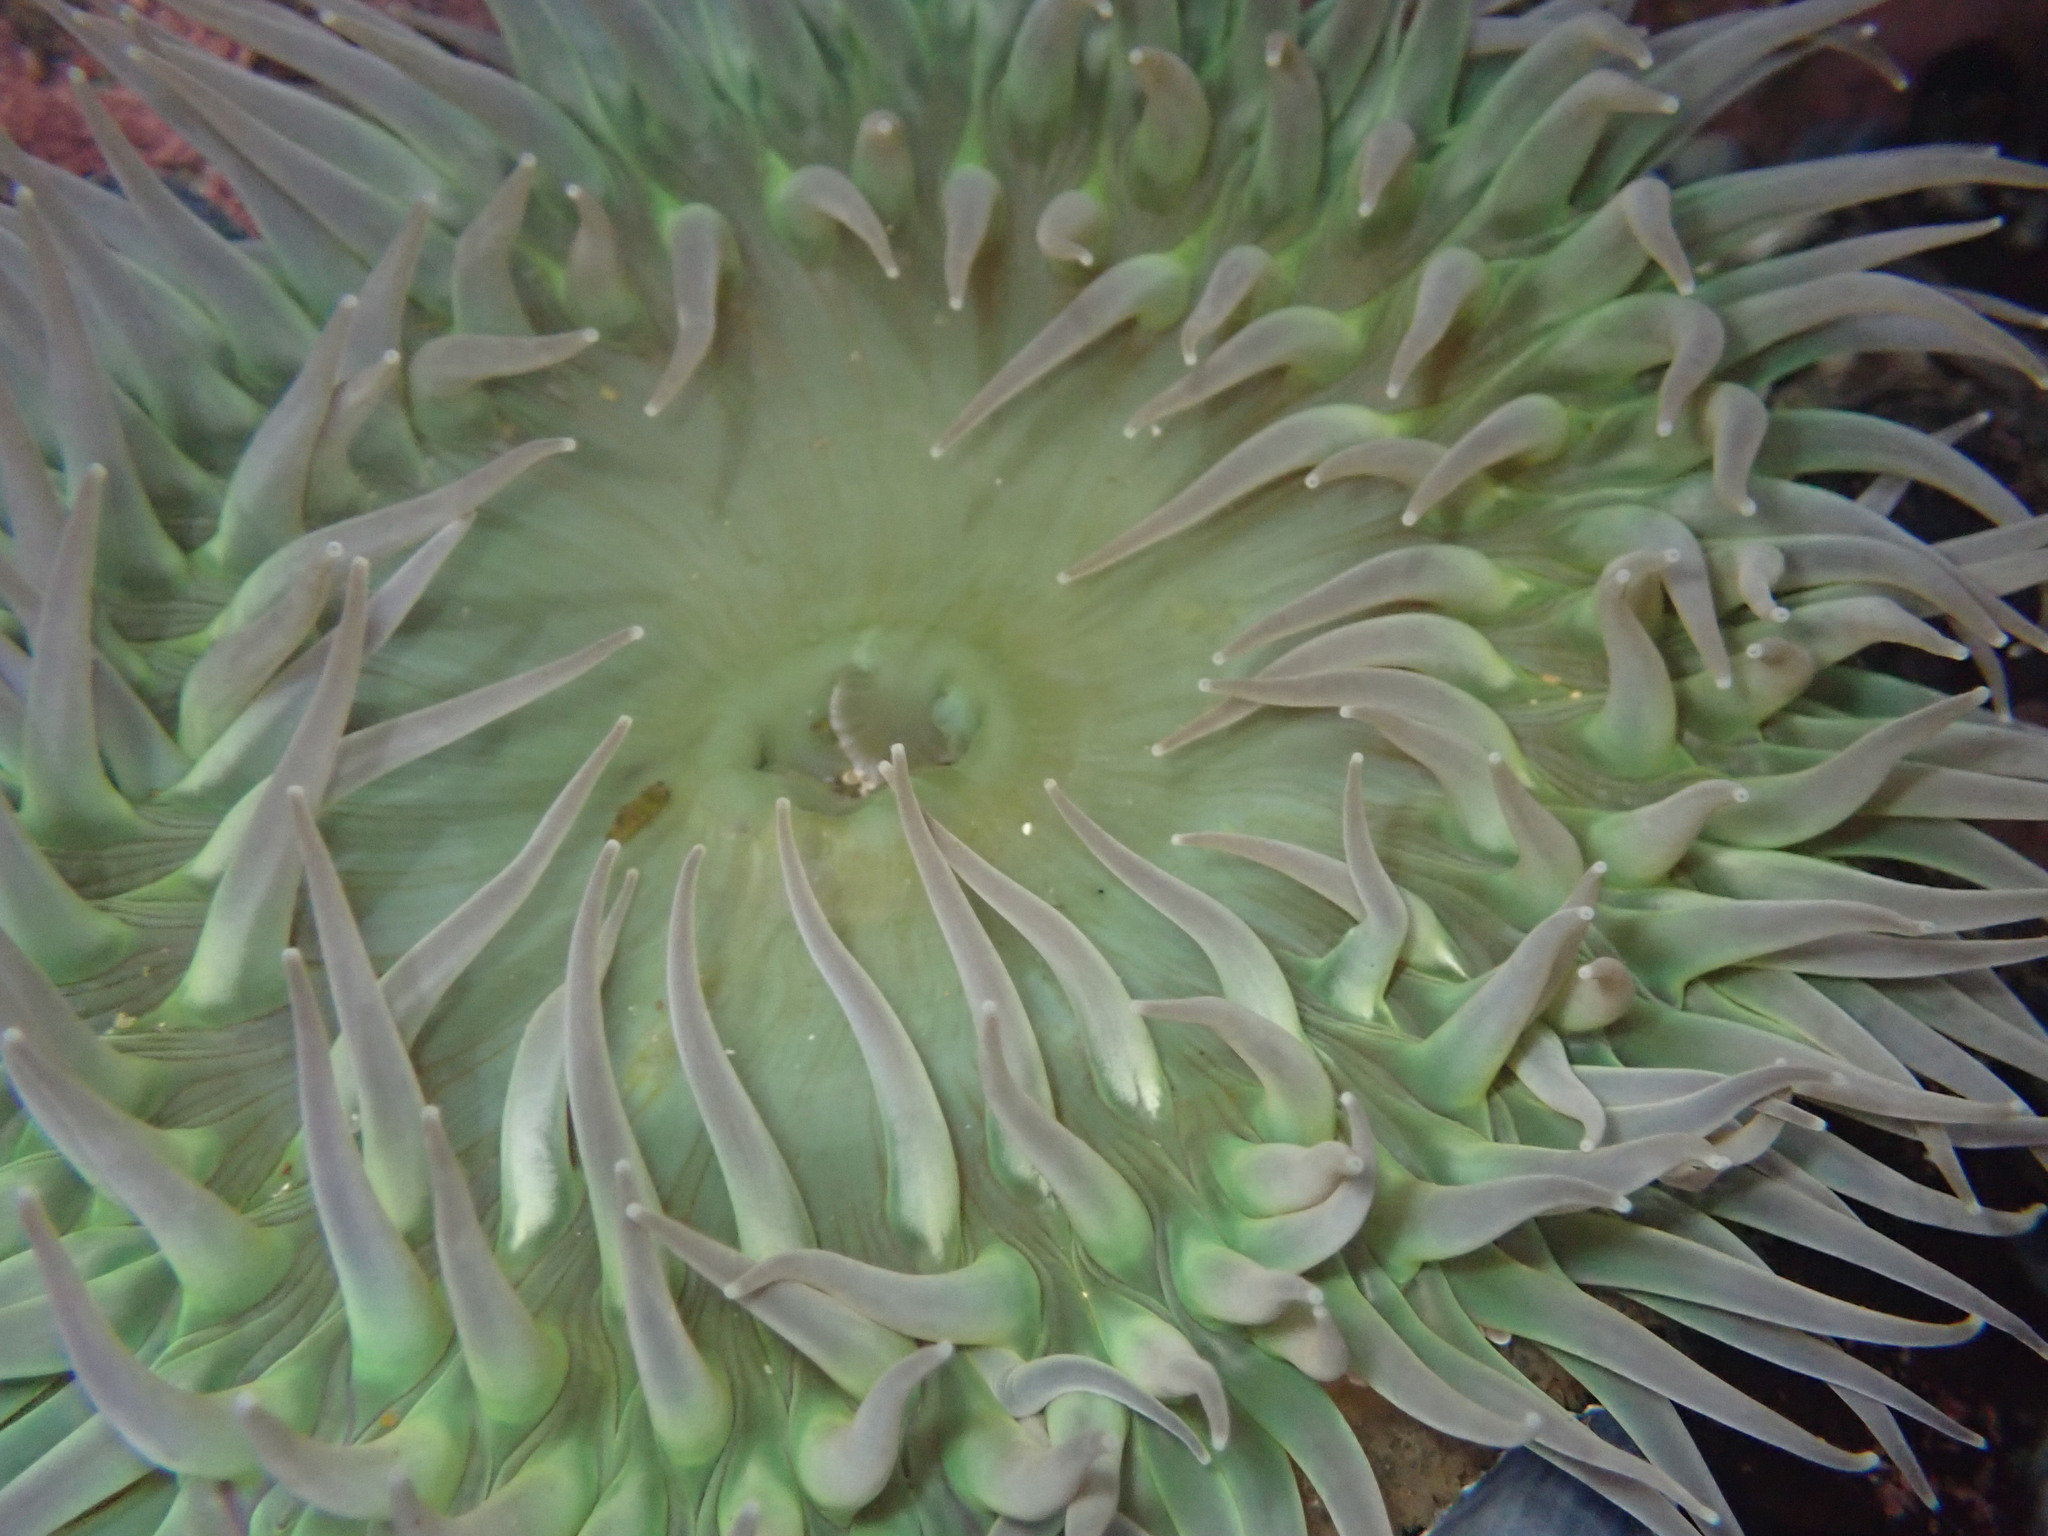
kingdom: Animalia
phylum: Cnidaria
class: Anthozoa
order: Actiniaria
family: Actiniidae
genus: Anthopleura
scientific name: Anthopleura xanthogrammica
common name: Giant green anemone
